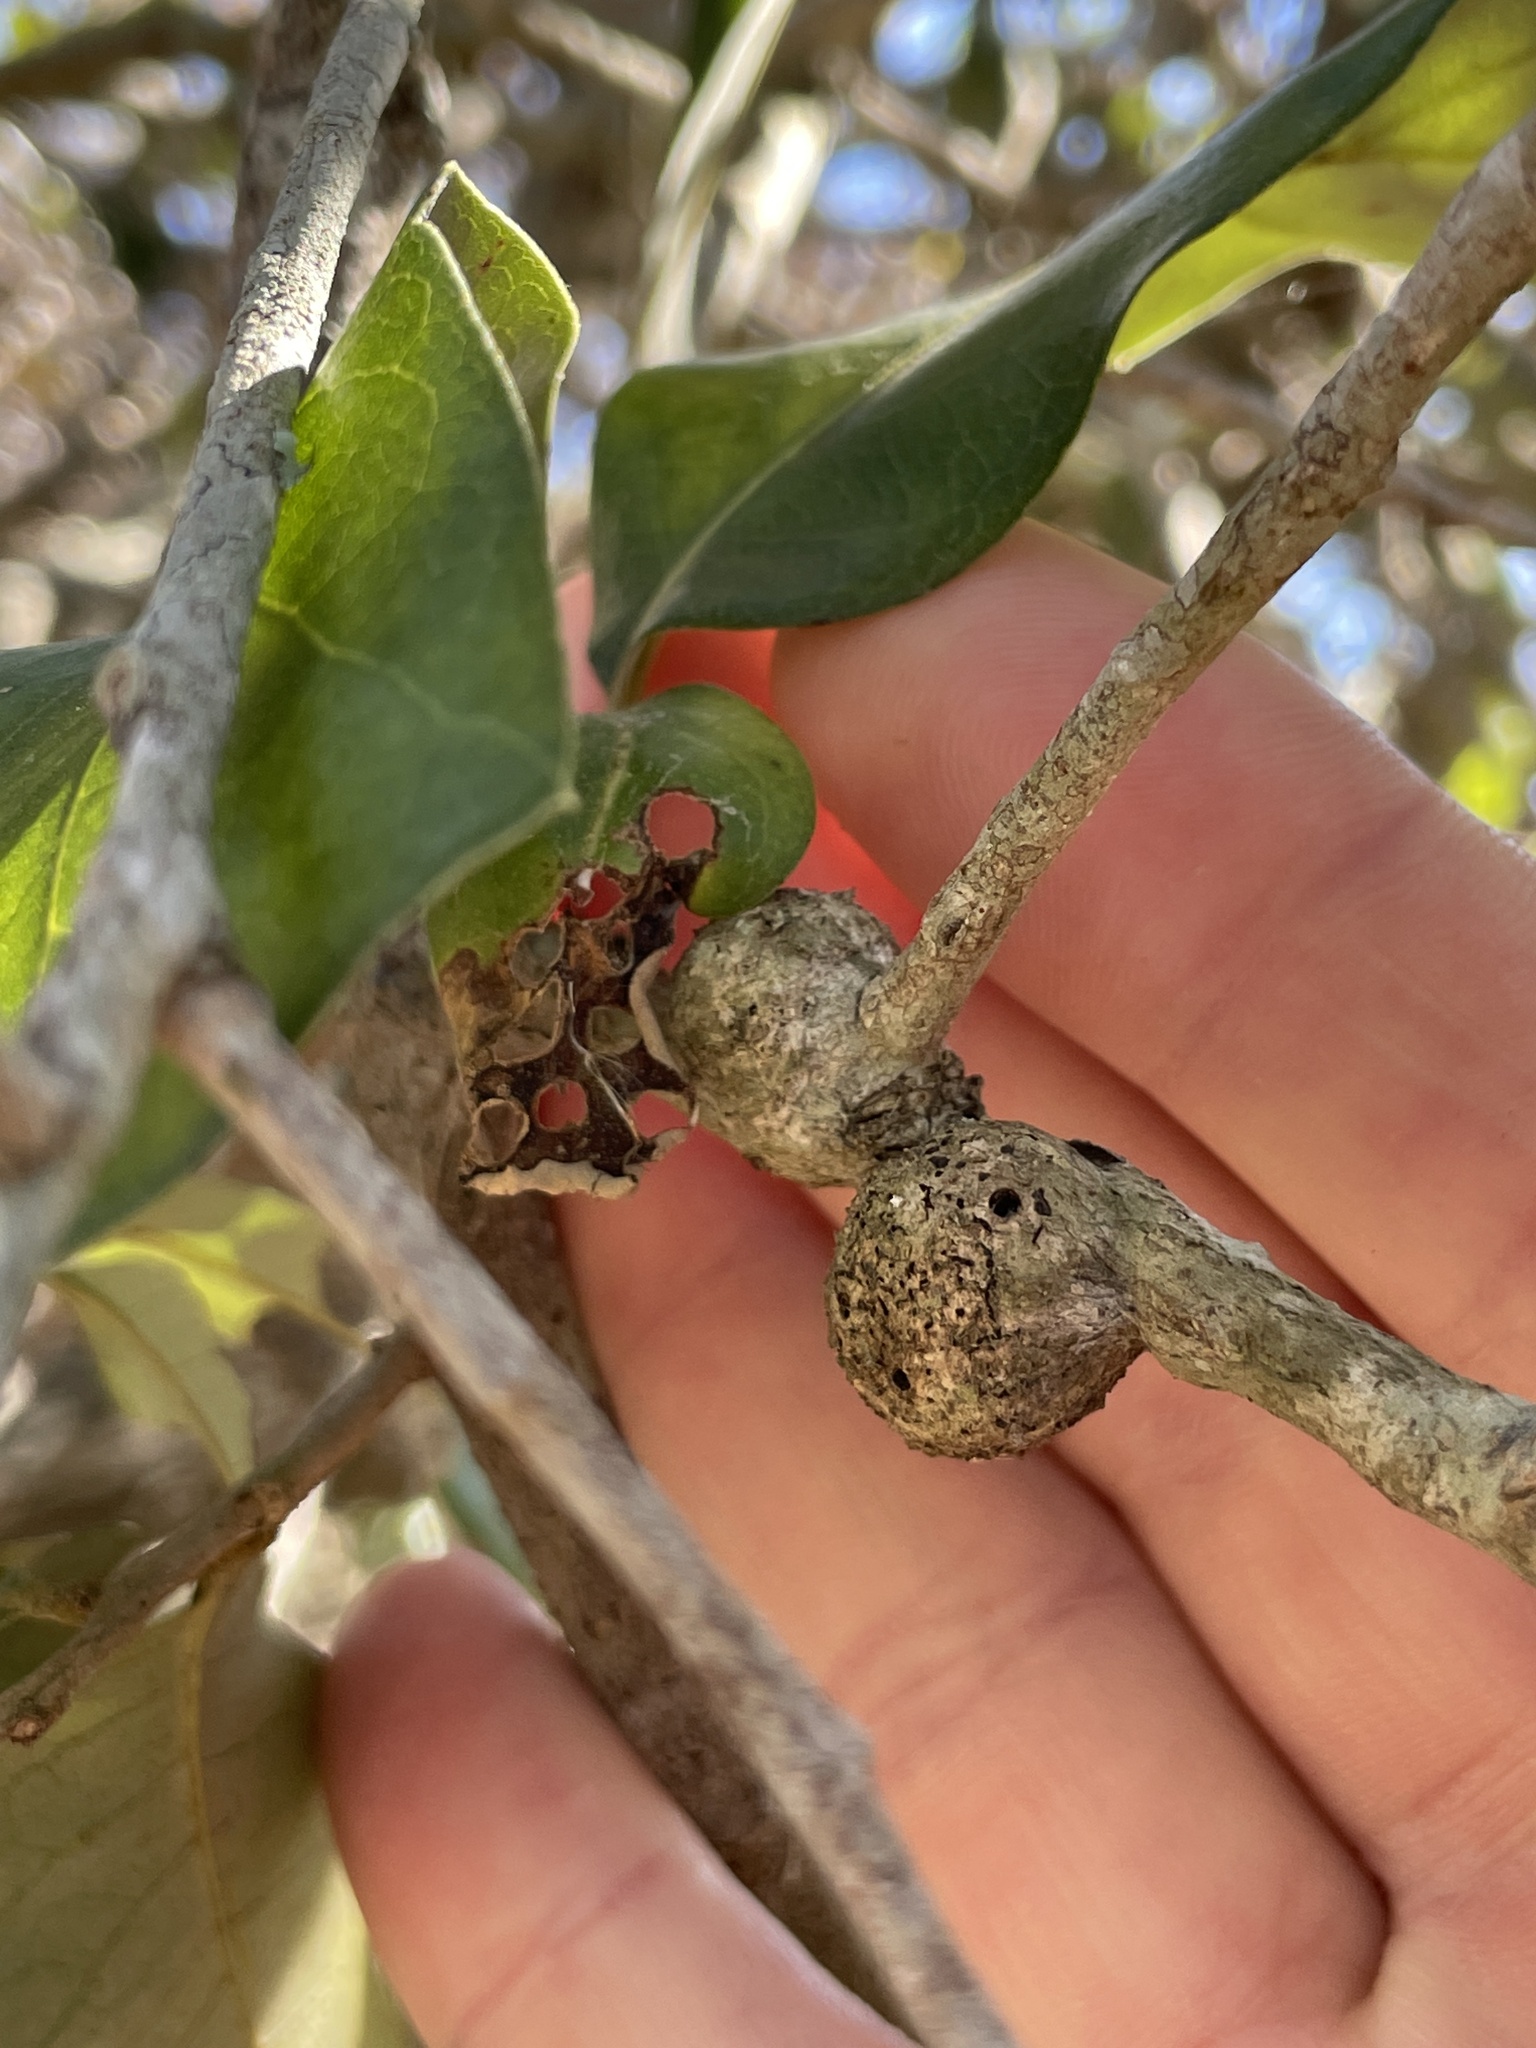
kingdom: Animalia
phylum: Arthropoda
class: Insecta
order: Hymenoptera
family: Cynipidae
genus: Callirhytis
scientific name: Callirhytis
